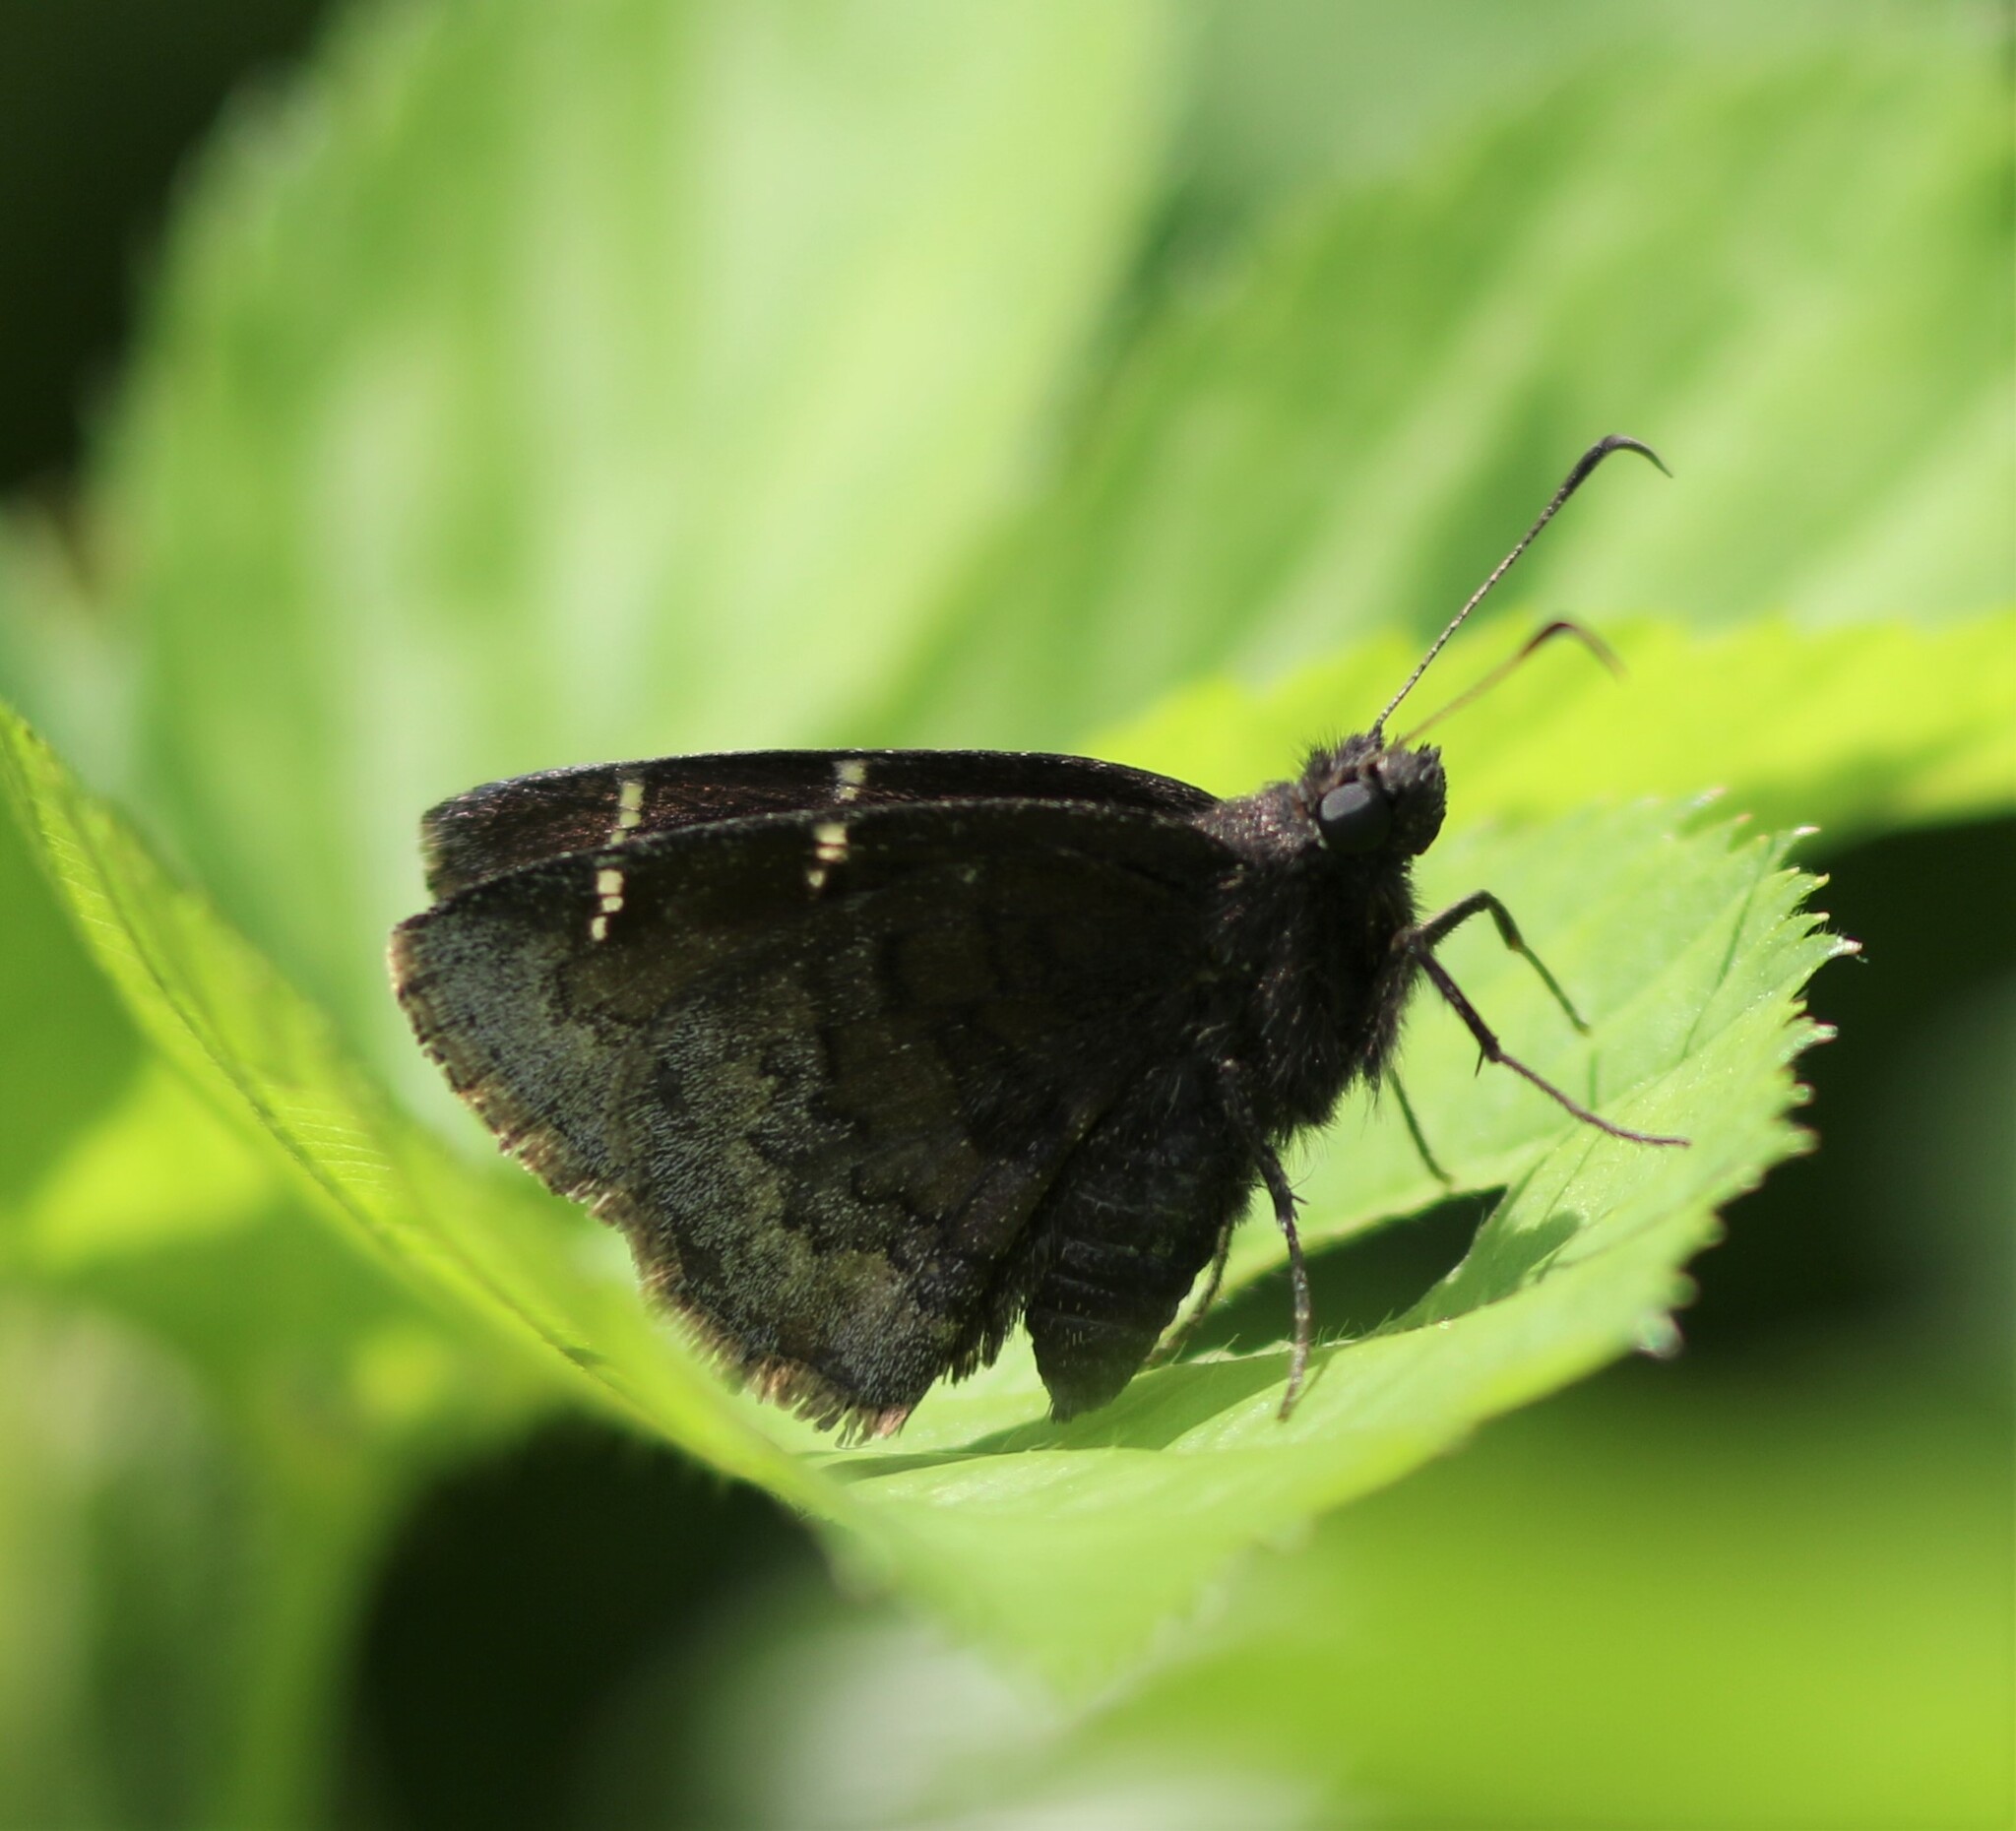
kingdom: Animalia
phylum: Arthropoda
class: Insecta
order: Lepidoptera
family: Hesperiidae
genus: Thorybes
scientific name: Thorybes pylades
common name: Northern cloudywing
